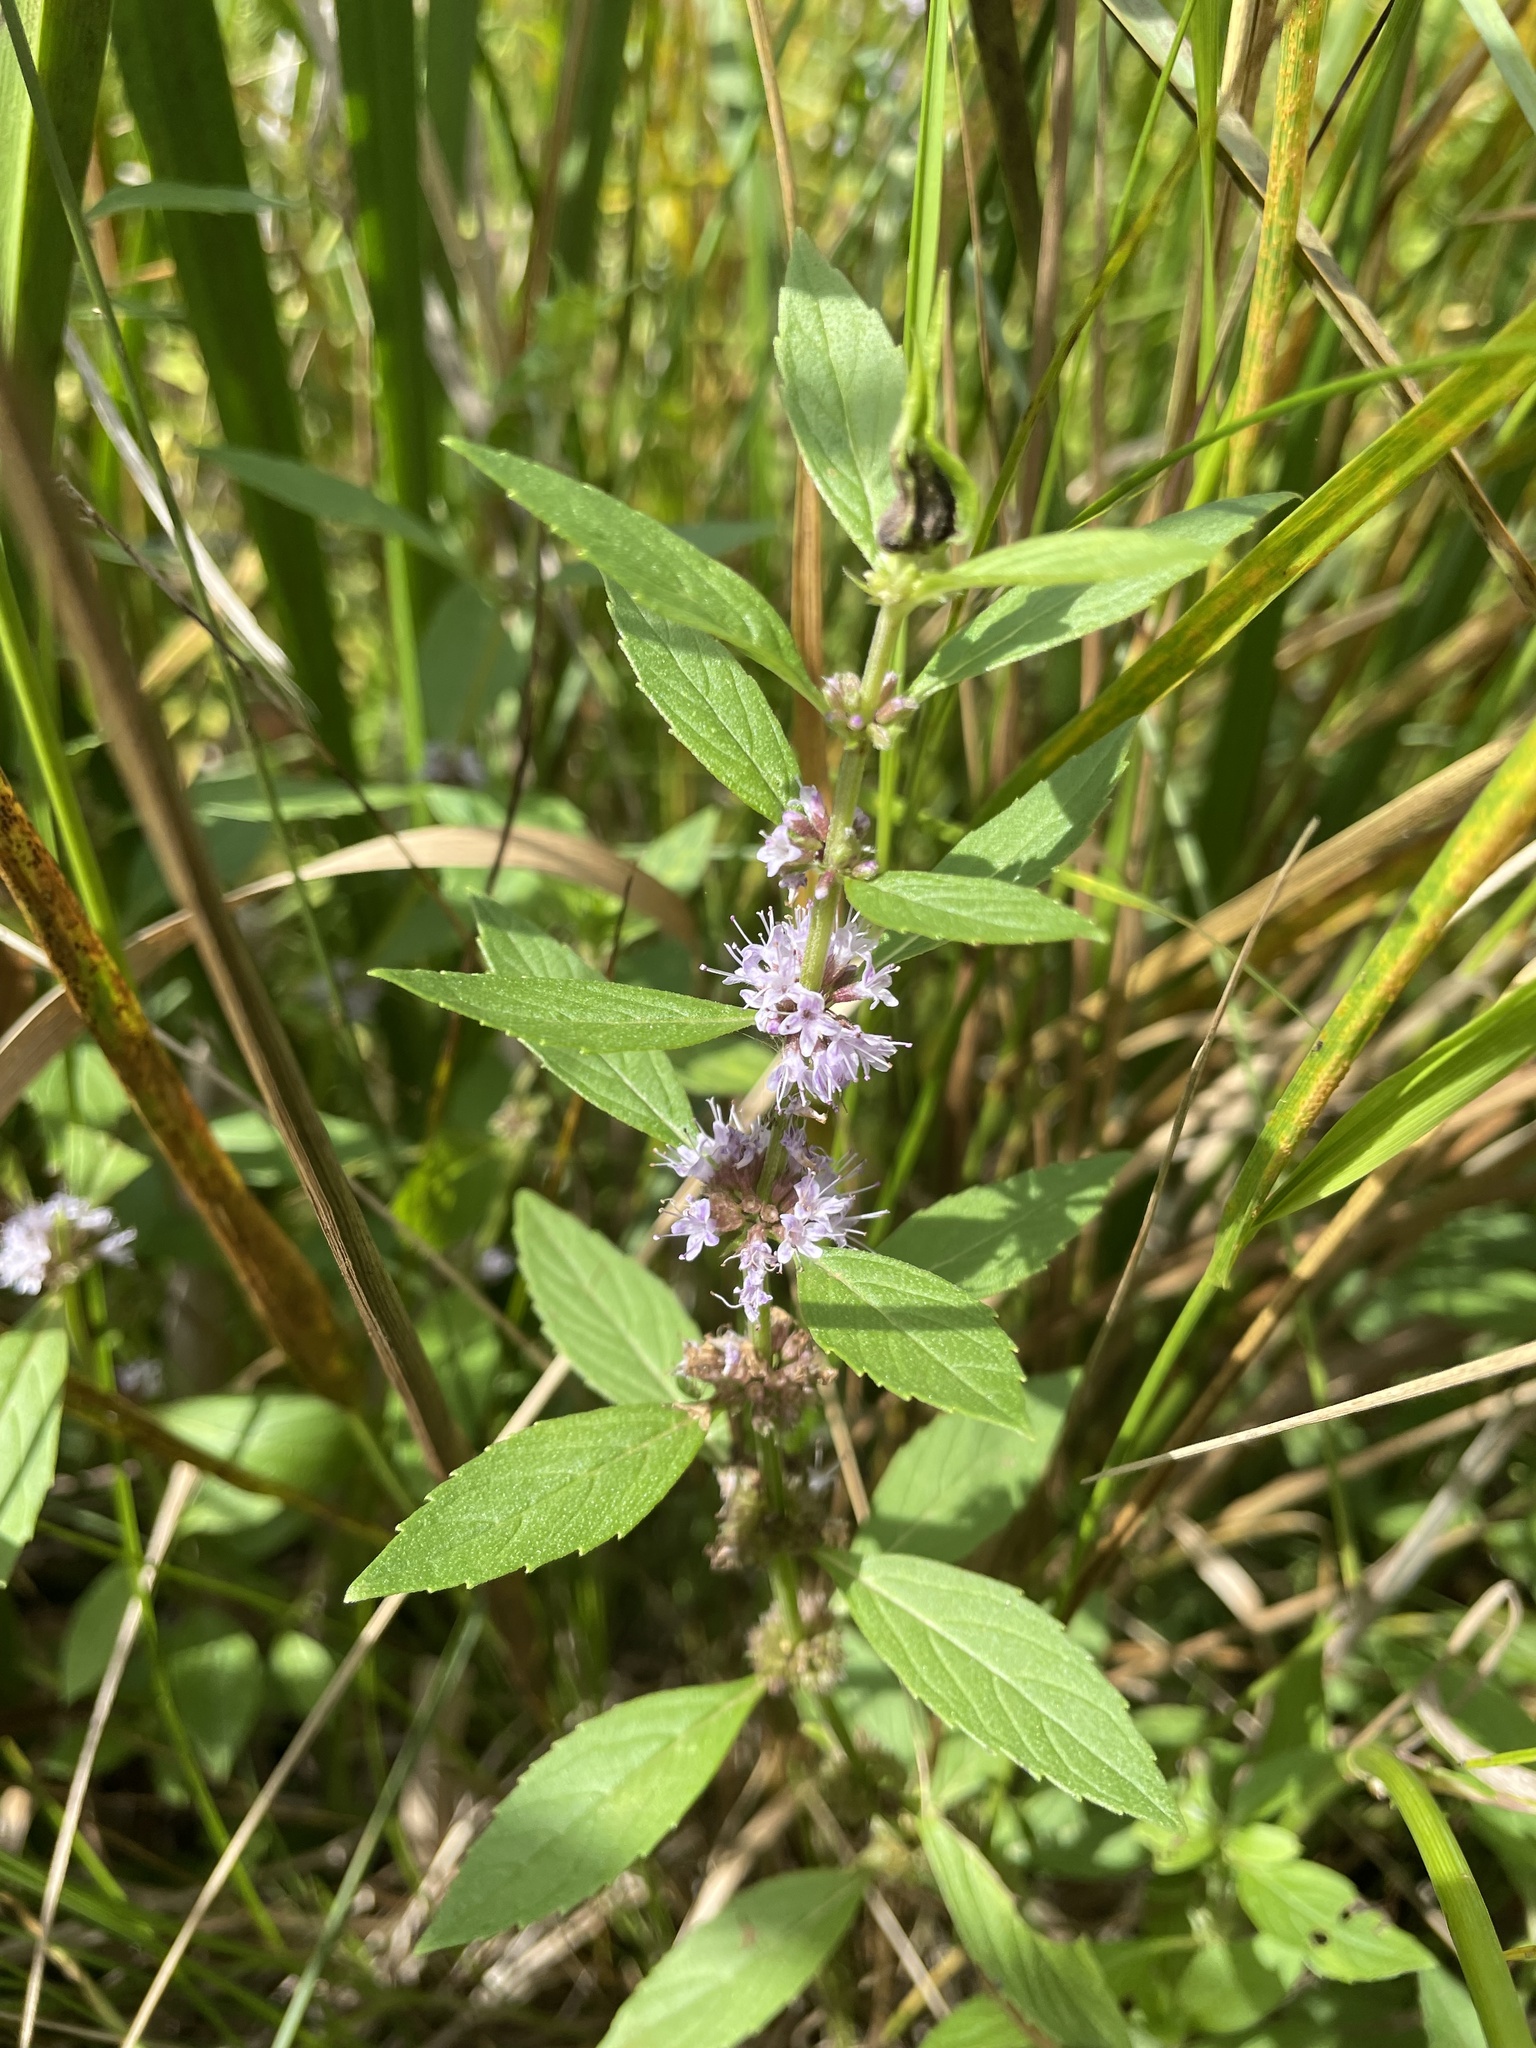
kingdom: Plantae
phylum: Tracheophyta
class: Magnoliopsida
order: Lamiales
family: Lamiaceae
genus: Mentha
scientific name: Mentha canadensis
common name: American corn mint
